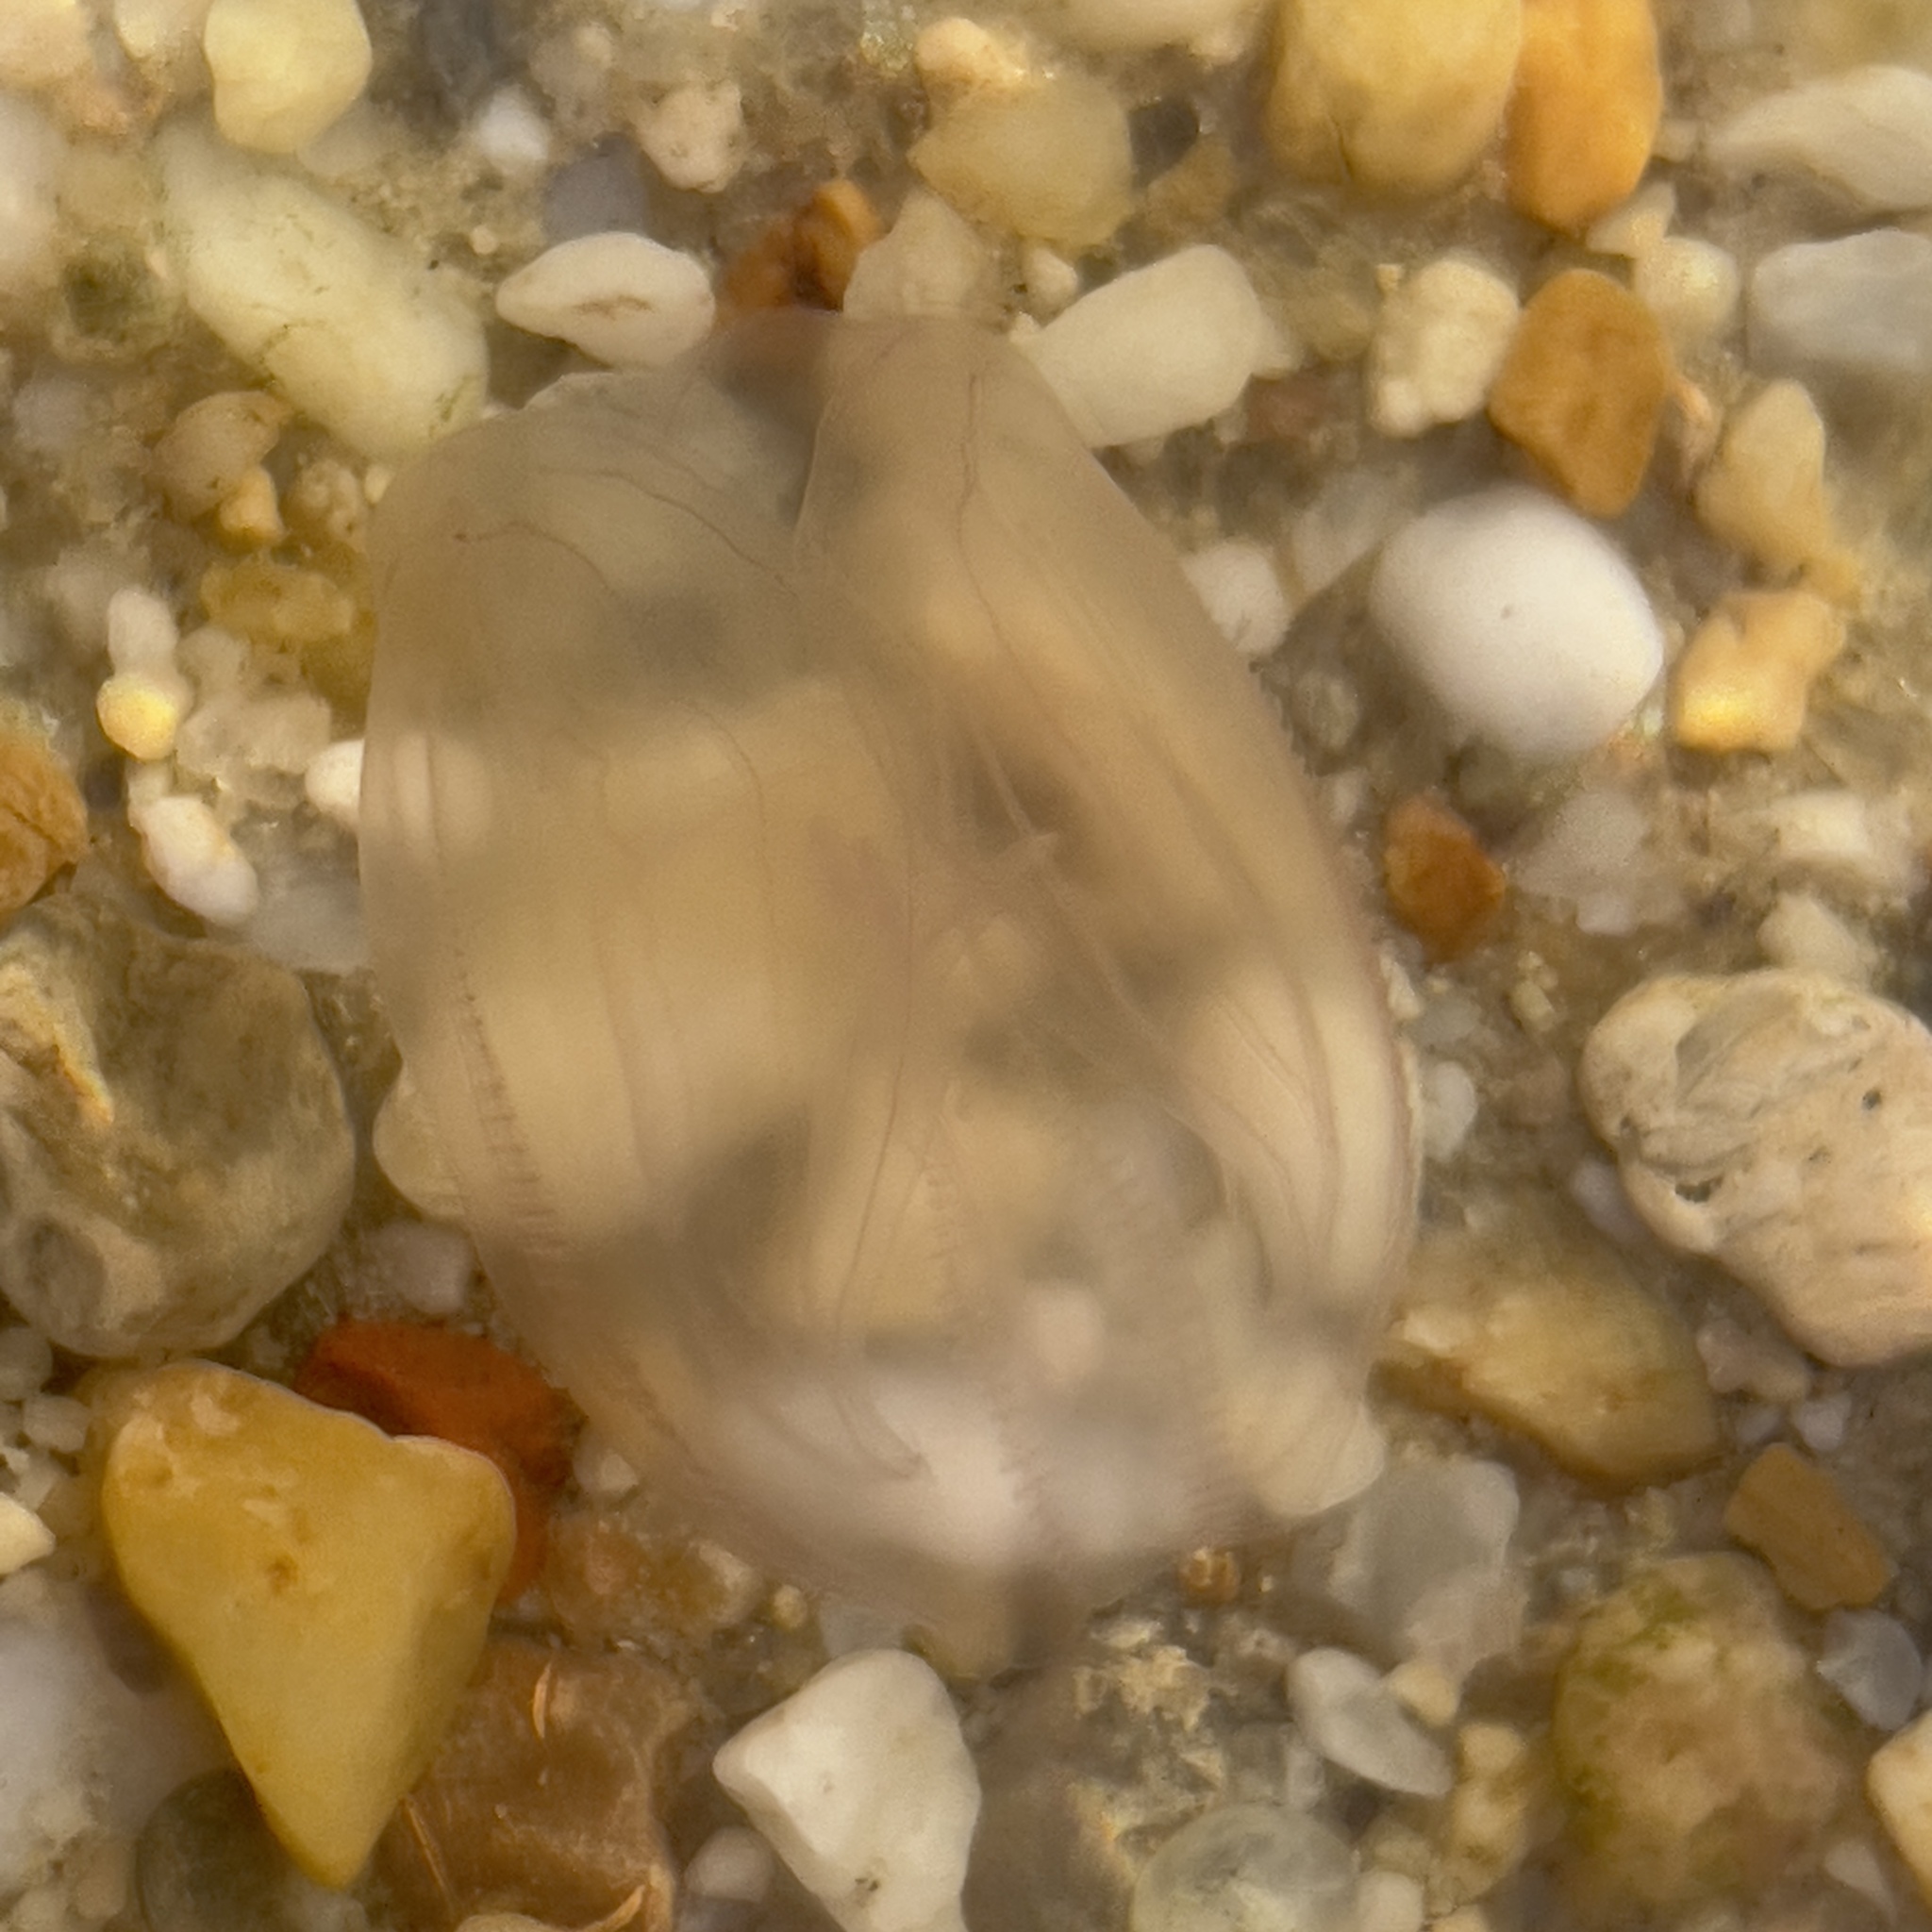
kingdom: Animalia
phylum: Ctenophora
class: Tentaculata
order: Lobata
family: Bolinopsidae
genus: Mnemiopsis
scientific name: Mnemiopsis leidyi
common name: American comb jelly
